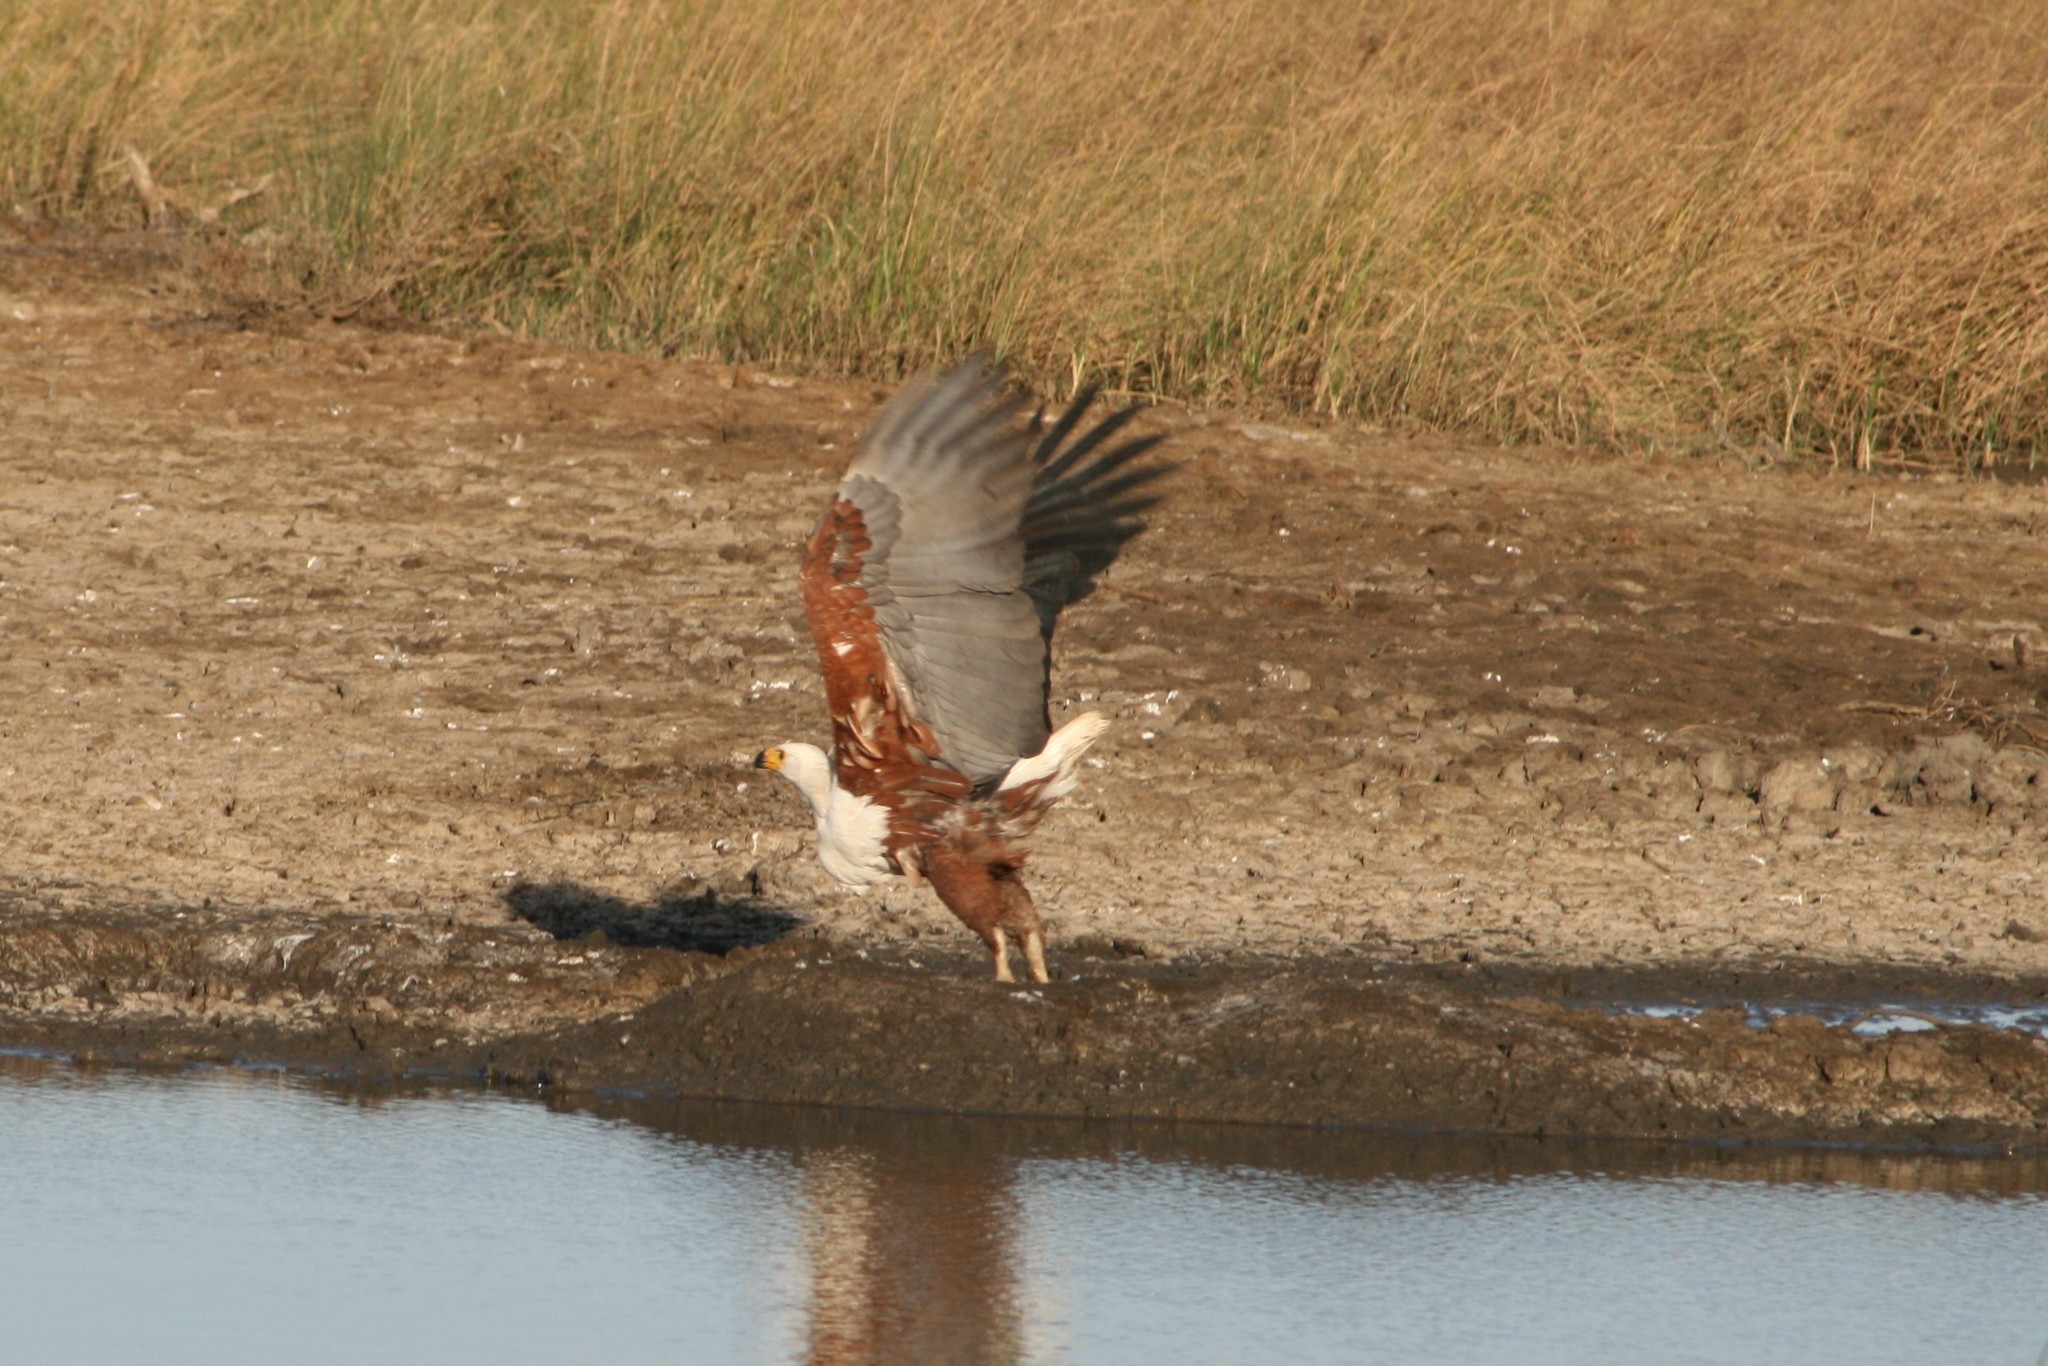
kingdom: Animalia
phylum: Chordata
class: Aves
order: Accipitriformes
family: Accipitridae
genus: Haliaeetus
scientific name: Haliaeetus vocifer
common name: African fish eagle
